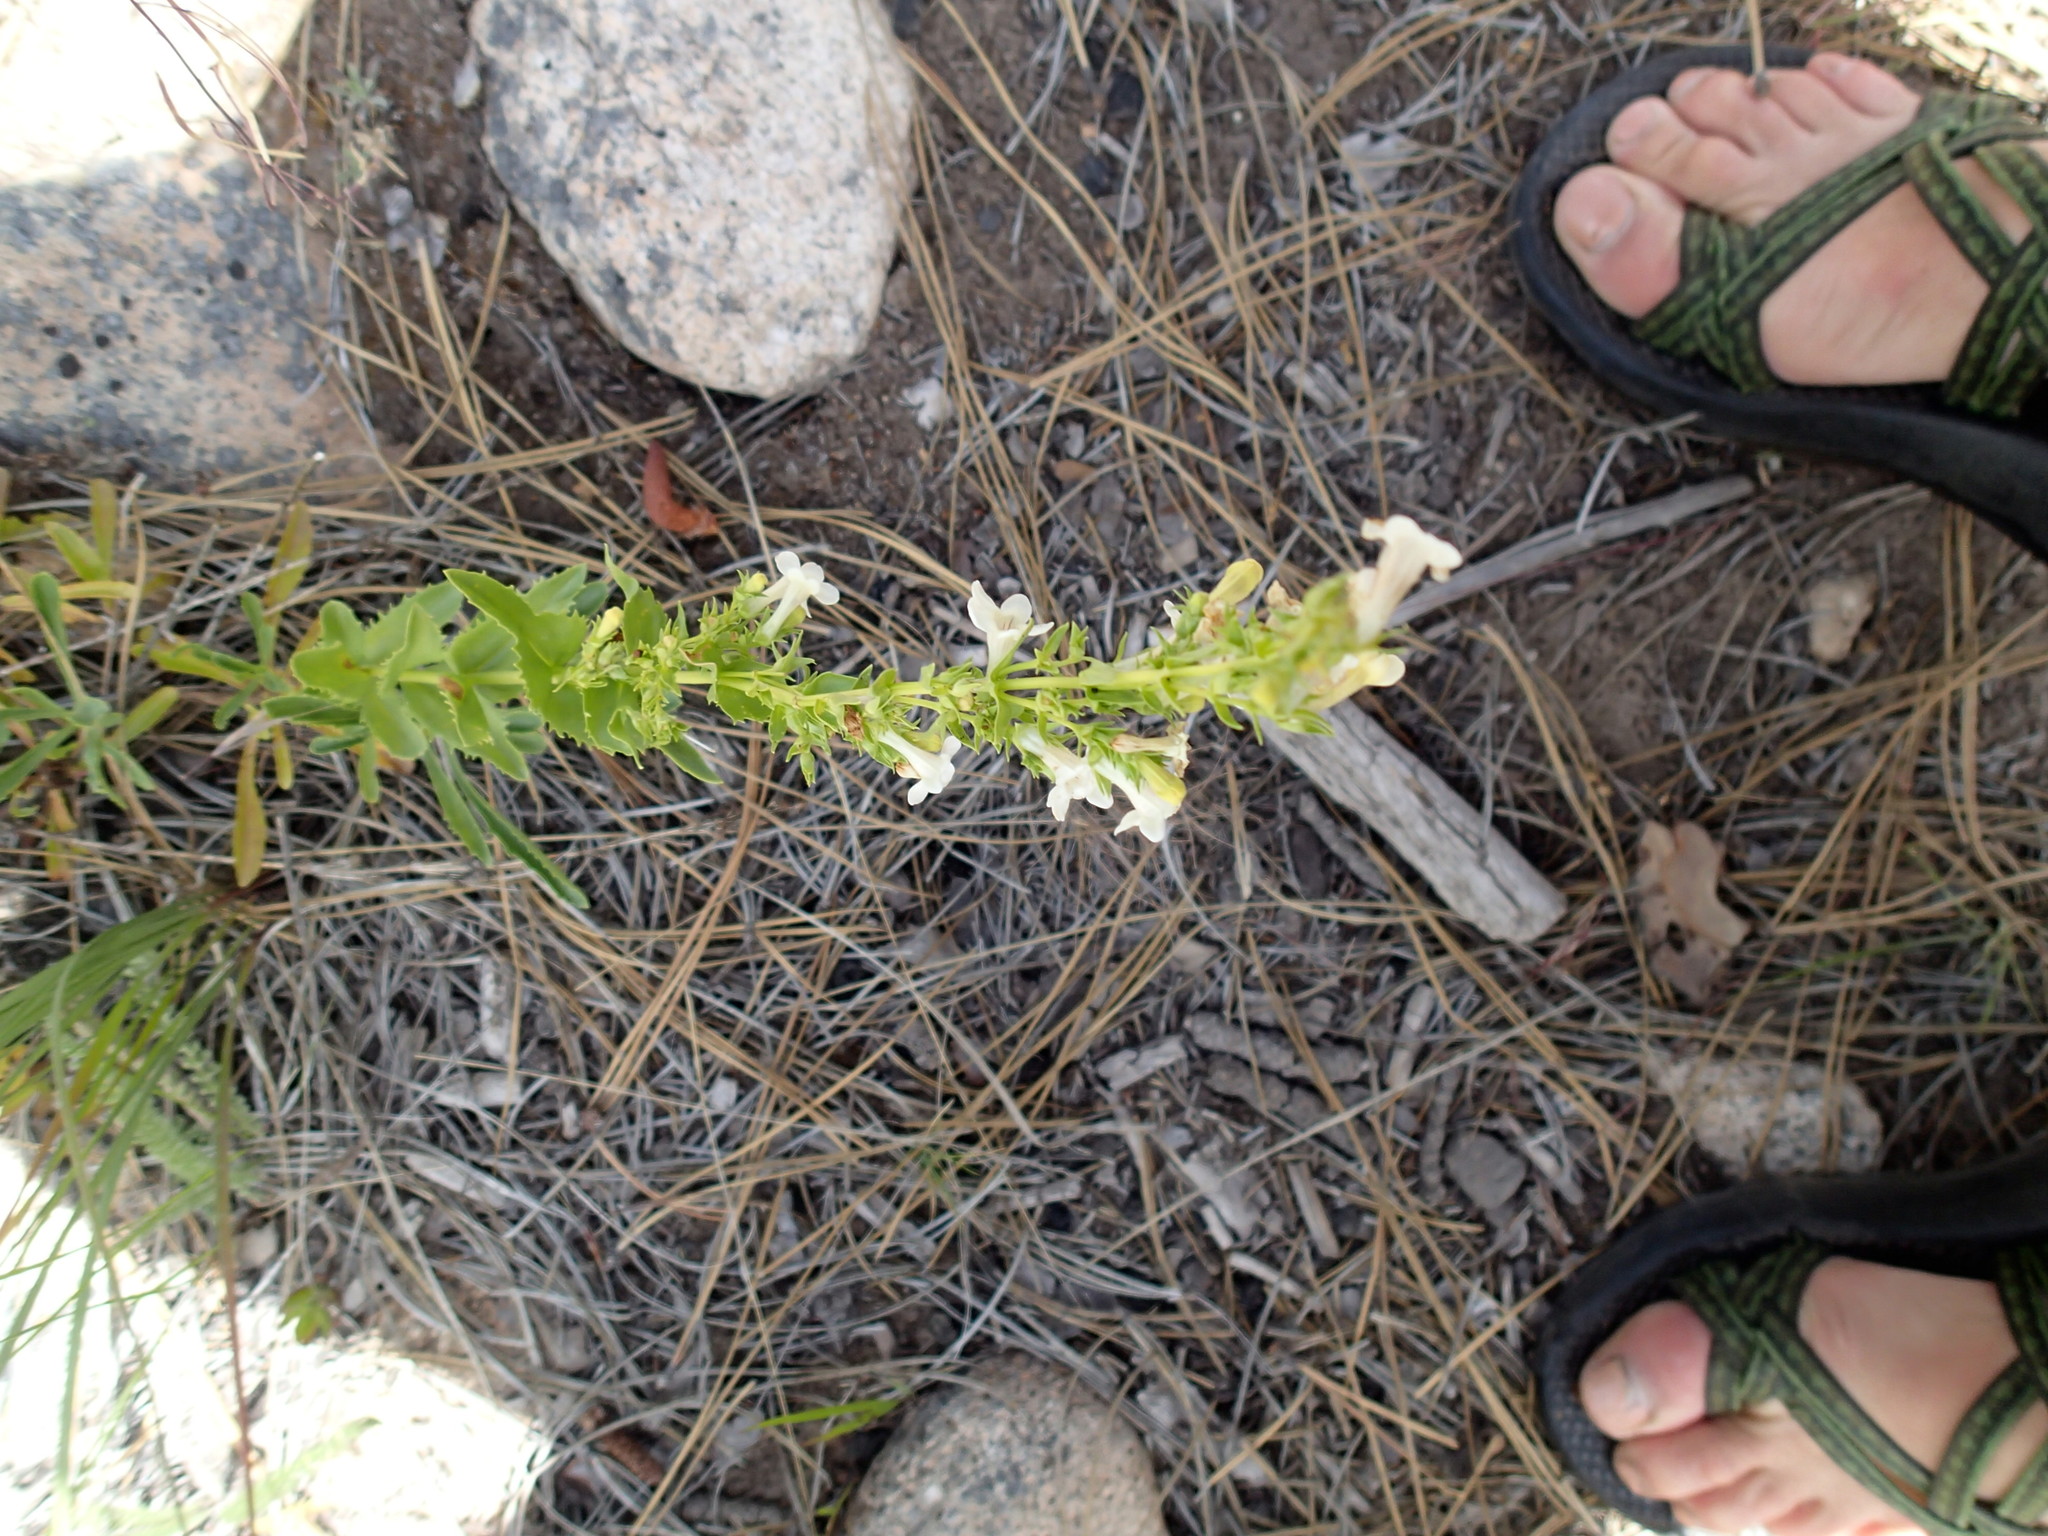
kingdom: Plantae
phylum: Tracheophyta
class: Magnoliopsida
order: Lamiales
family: Plantaginaceae
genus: Penstemon
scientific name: Penstemon deustus
